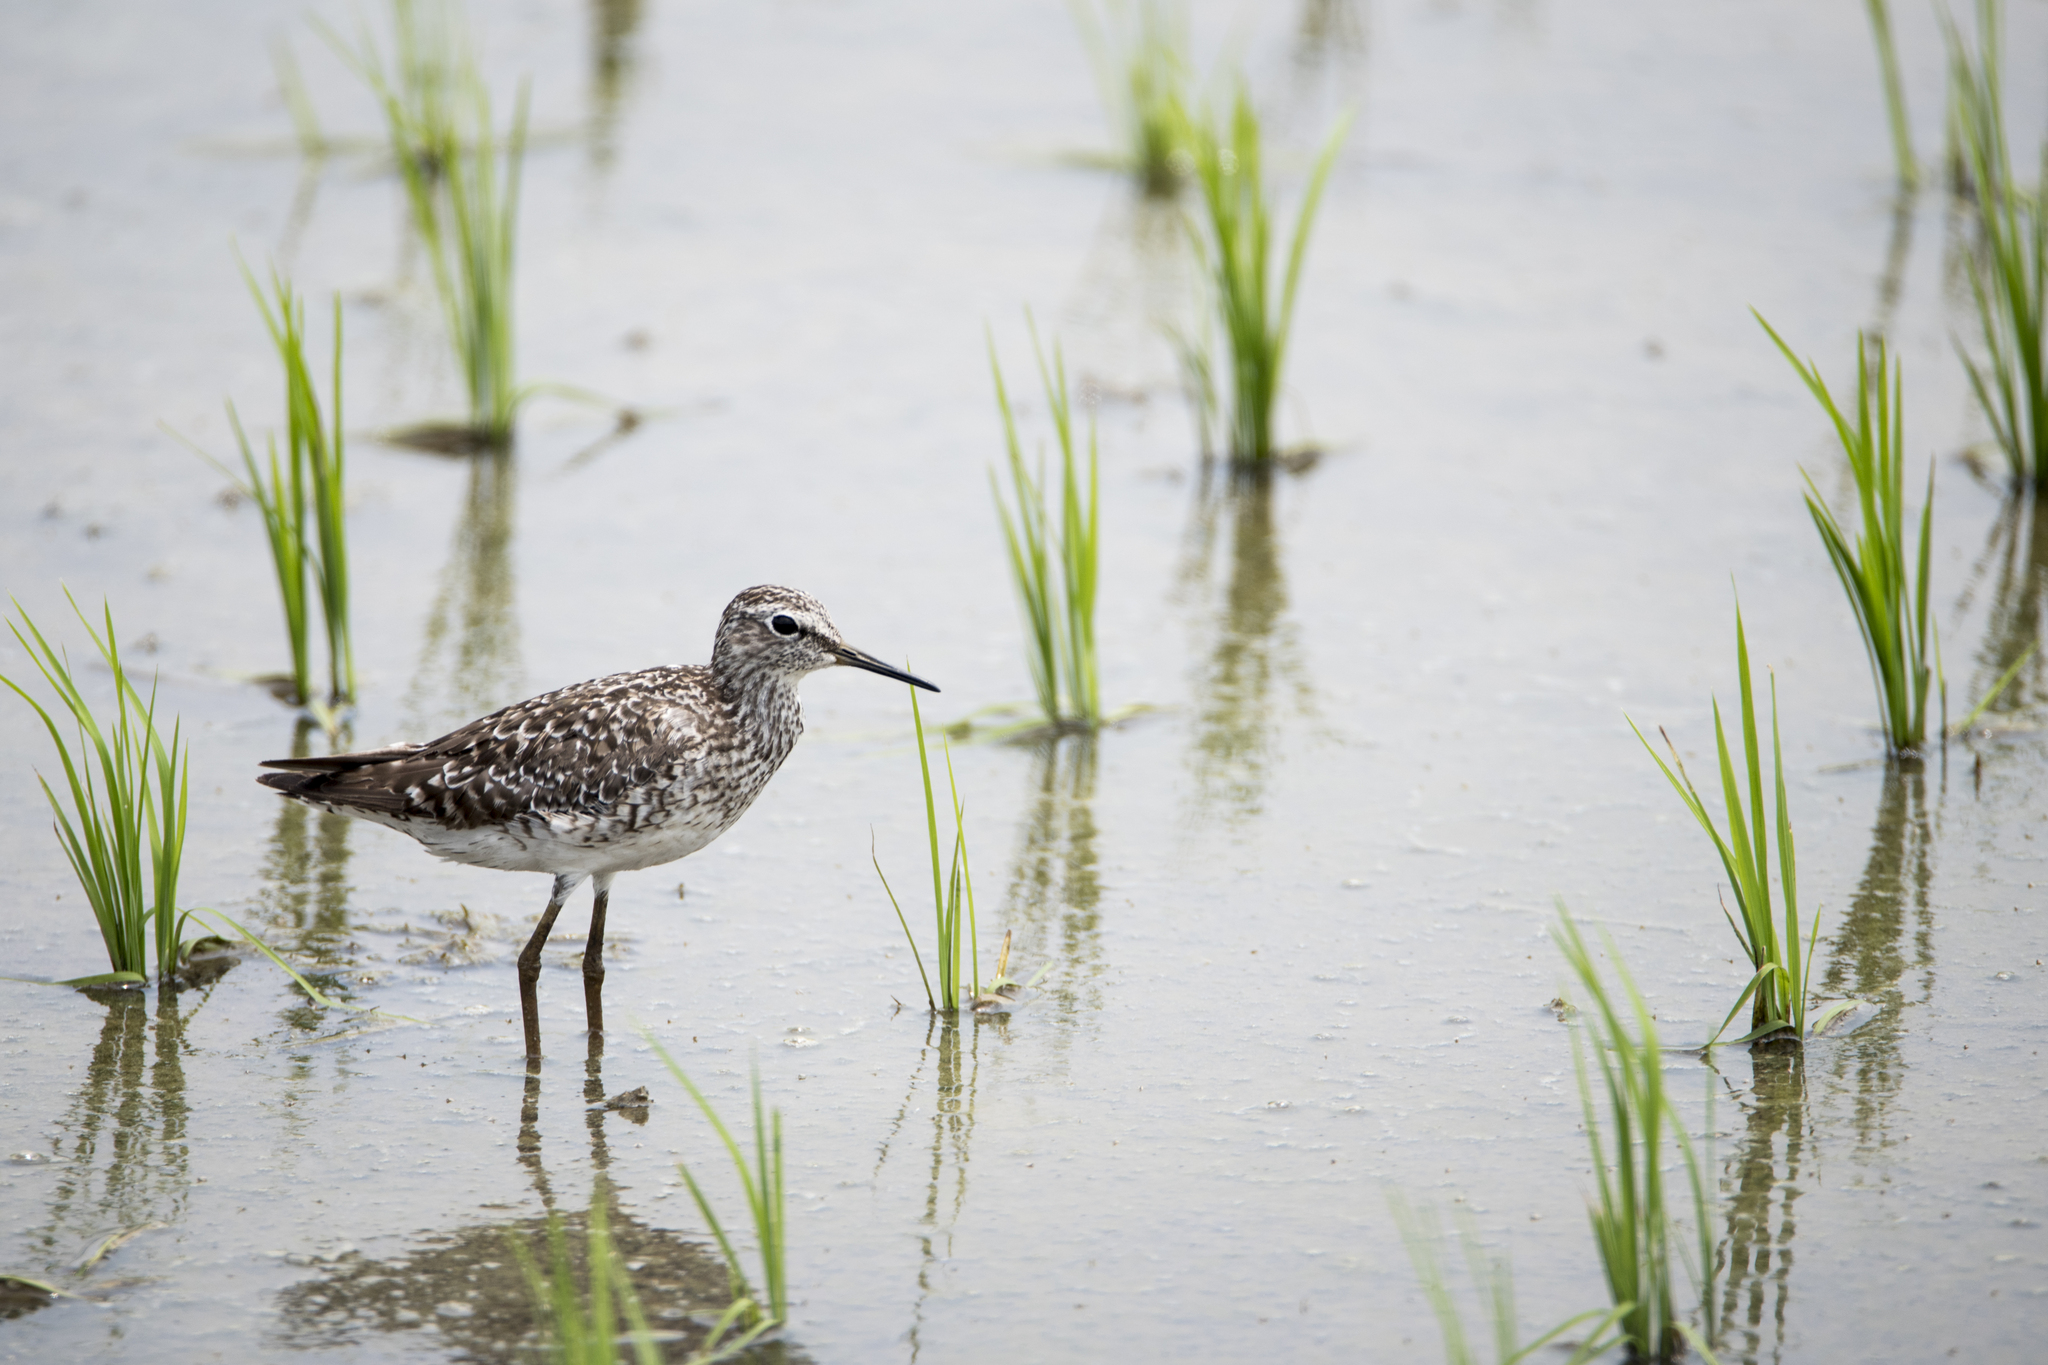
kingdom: Animalia
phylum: Chordata
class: Aves
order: Charadriiformes
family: Scolopacidae
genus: Tringa
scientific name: Tringa glareola
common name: Wood sandpiper
